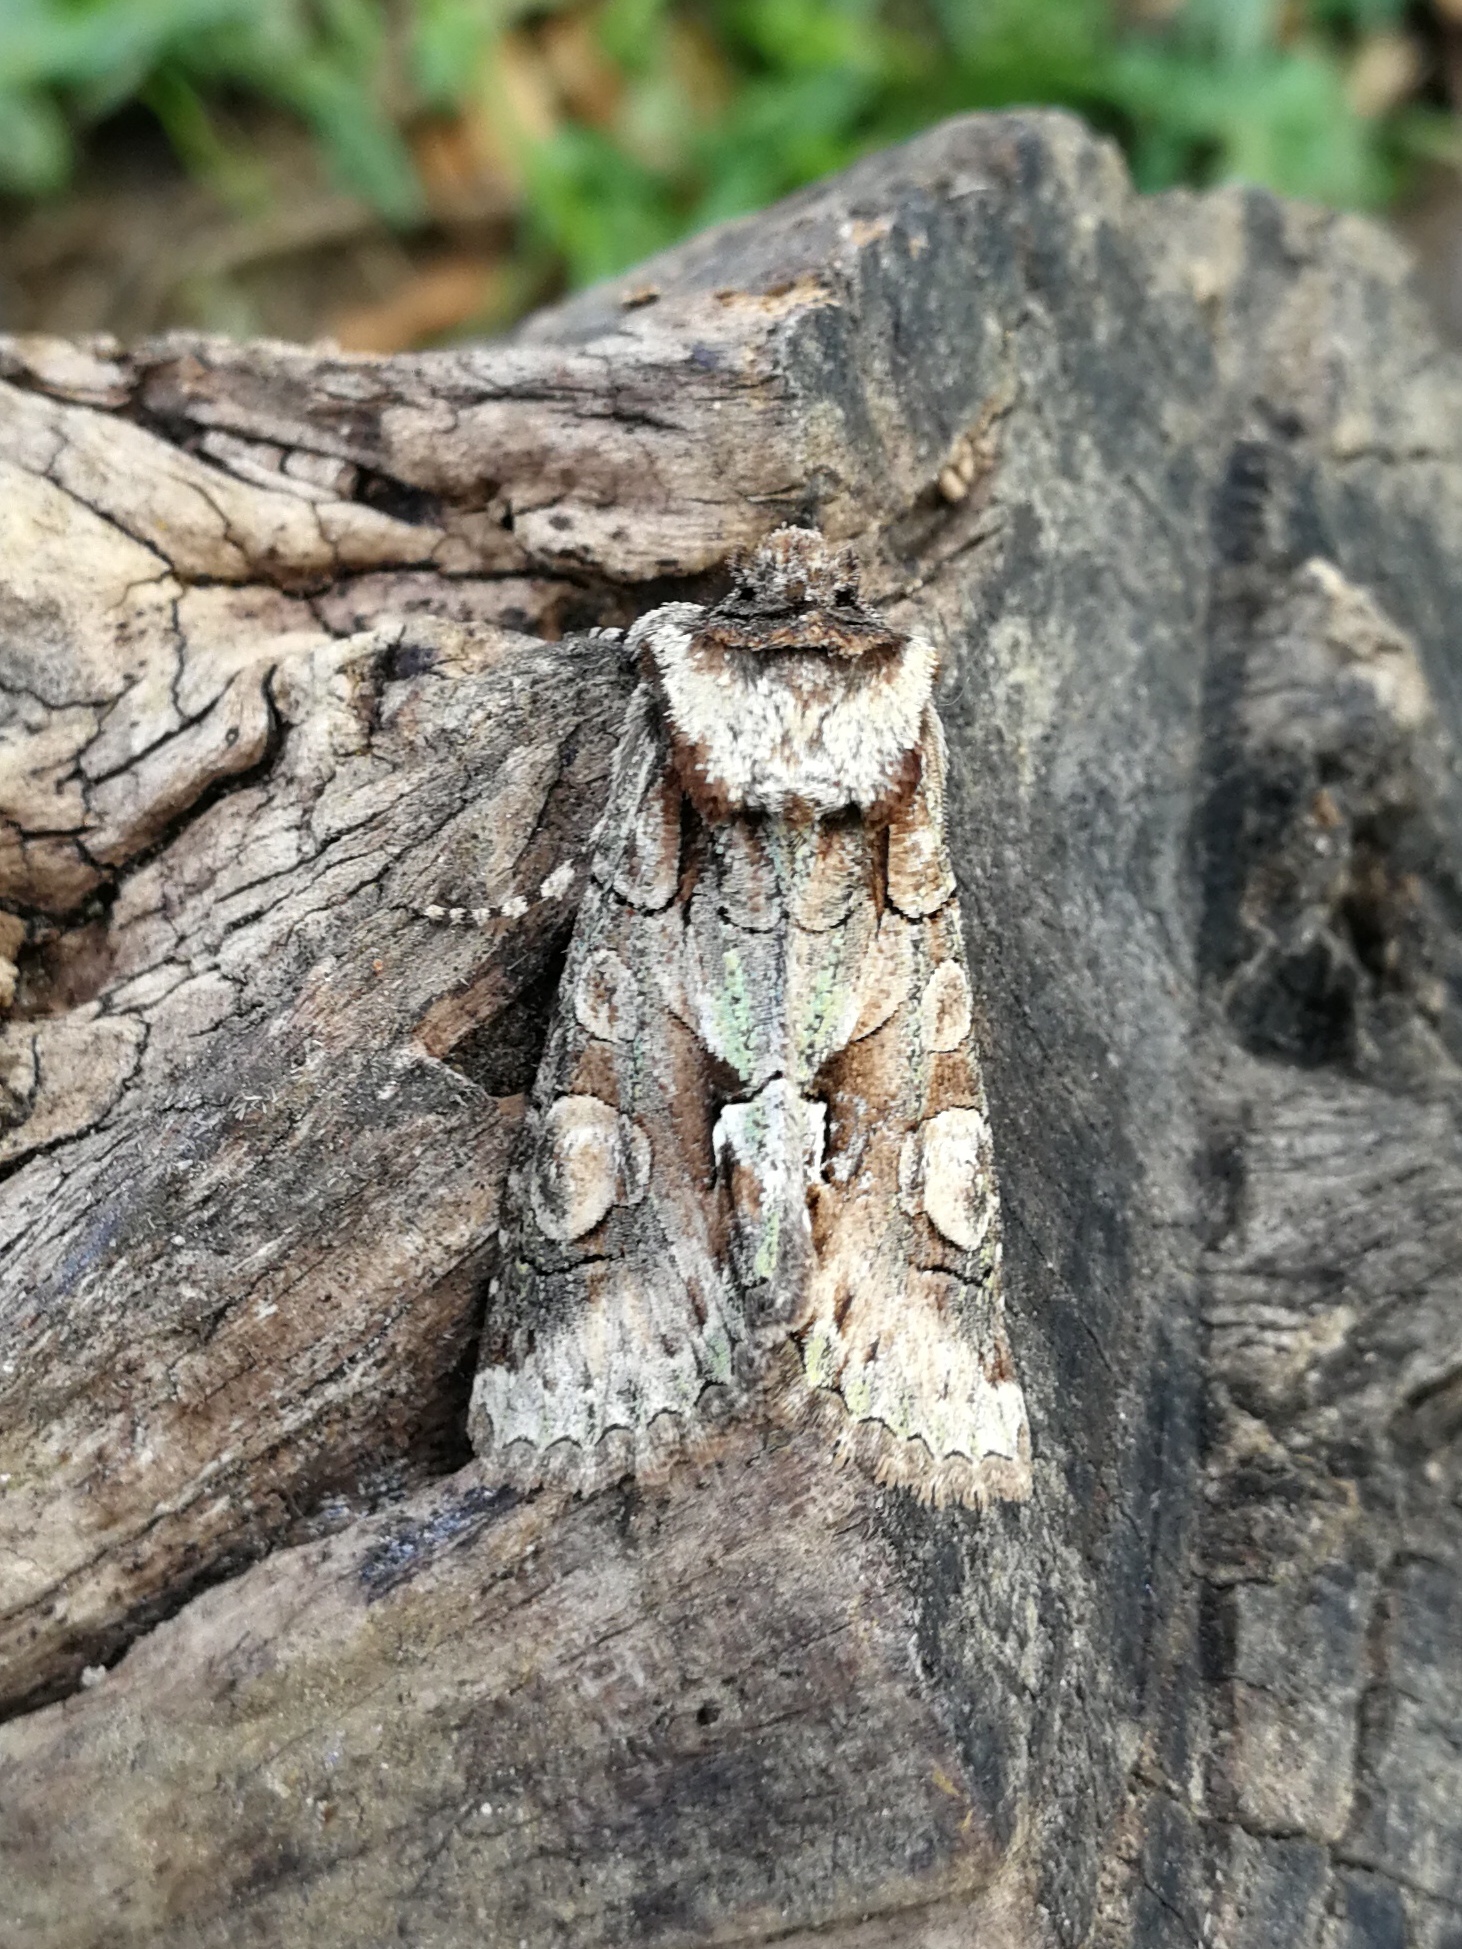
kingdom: Animalia
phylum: Arthropoda
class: Insecta
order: Lepidoptera
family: Noctuidae
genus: Allophyes
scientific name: Allophyes alfaroi
